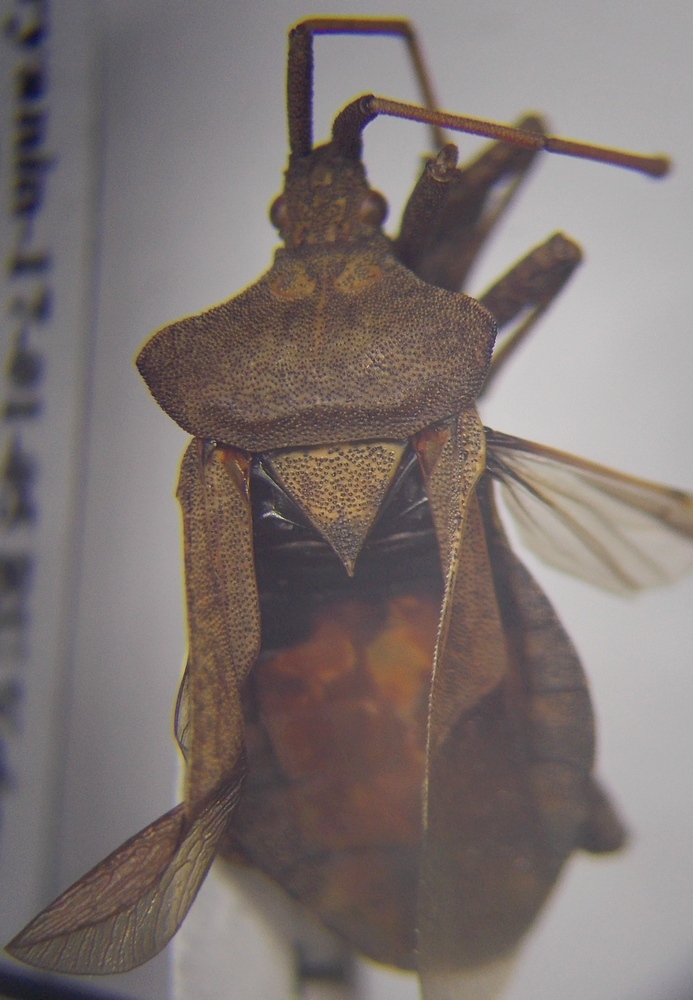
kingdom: Animalia
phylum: Arthropoda
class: Insecta
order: Hemiptera
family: Coreidae
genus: Coreus
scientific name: Coreus marginatus
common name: Dock bug
